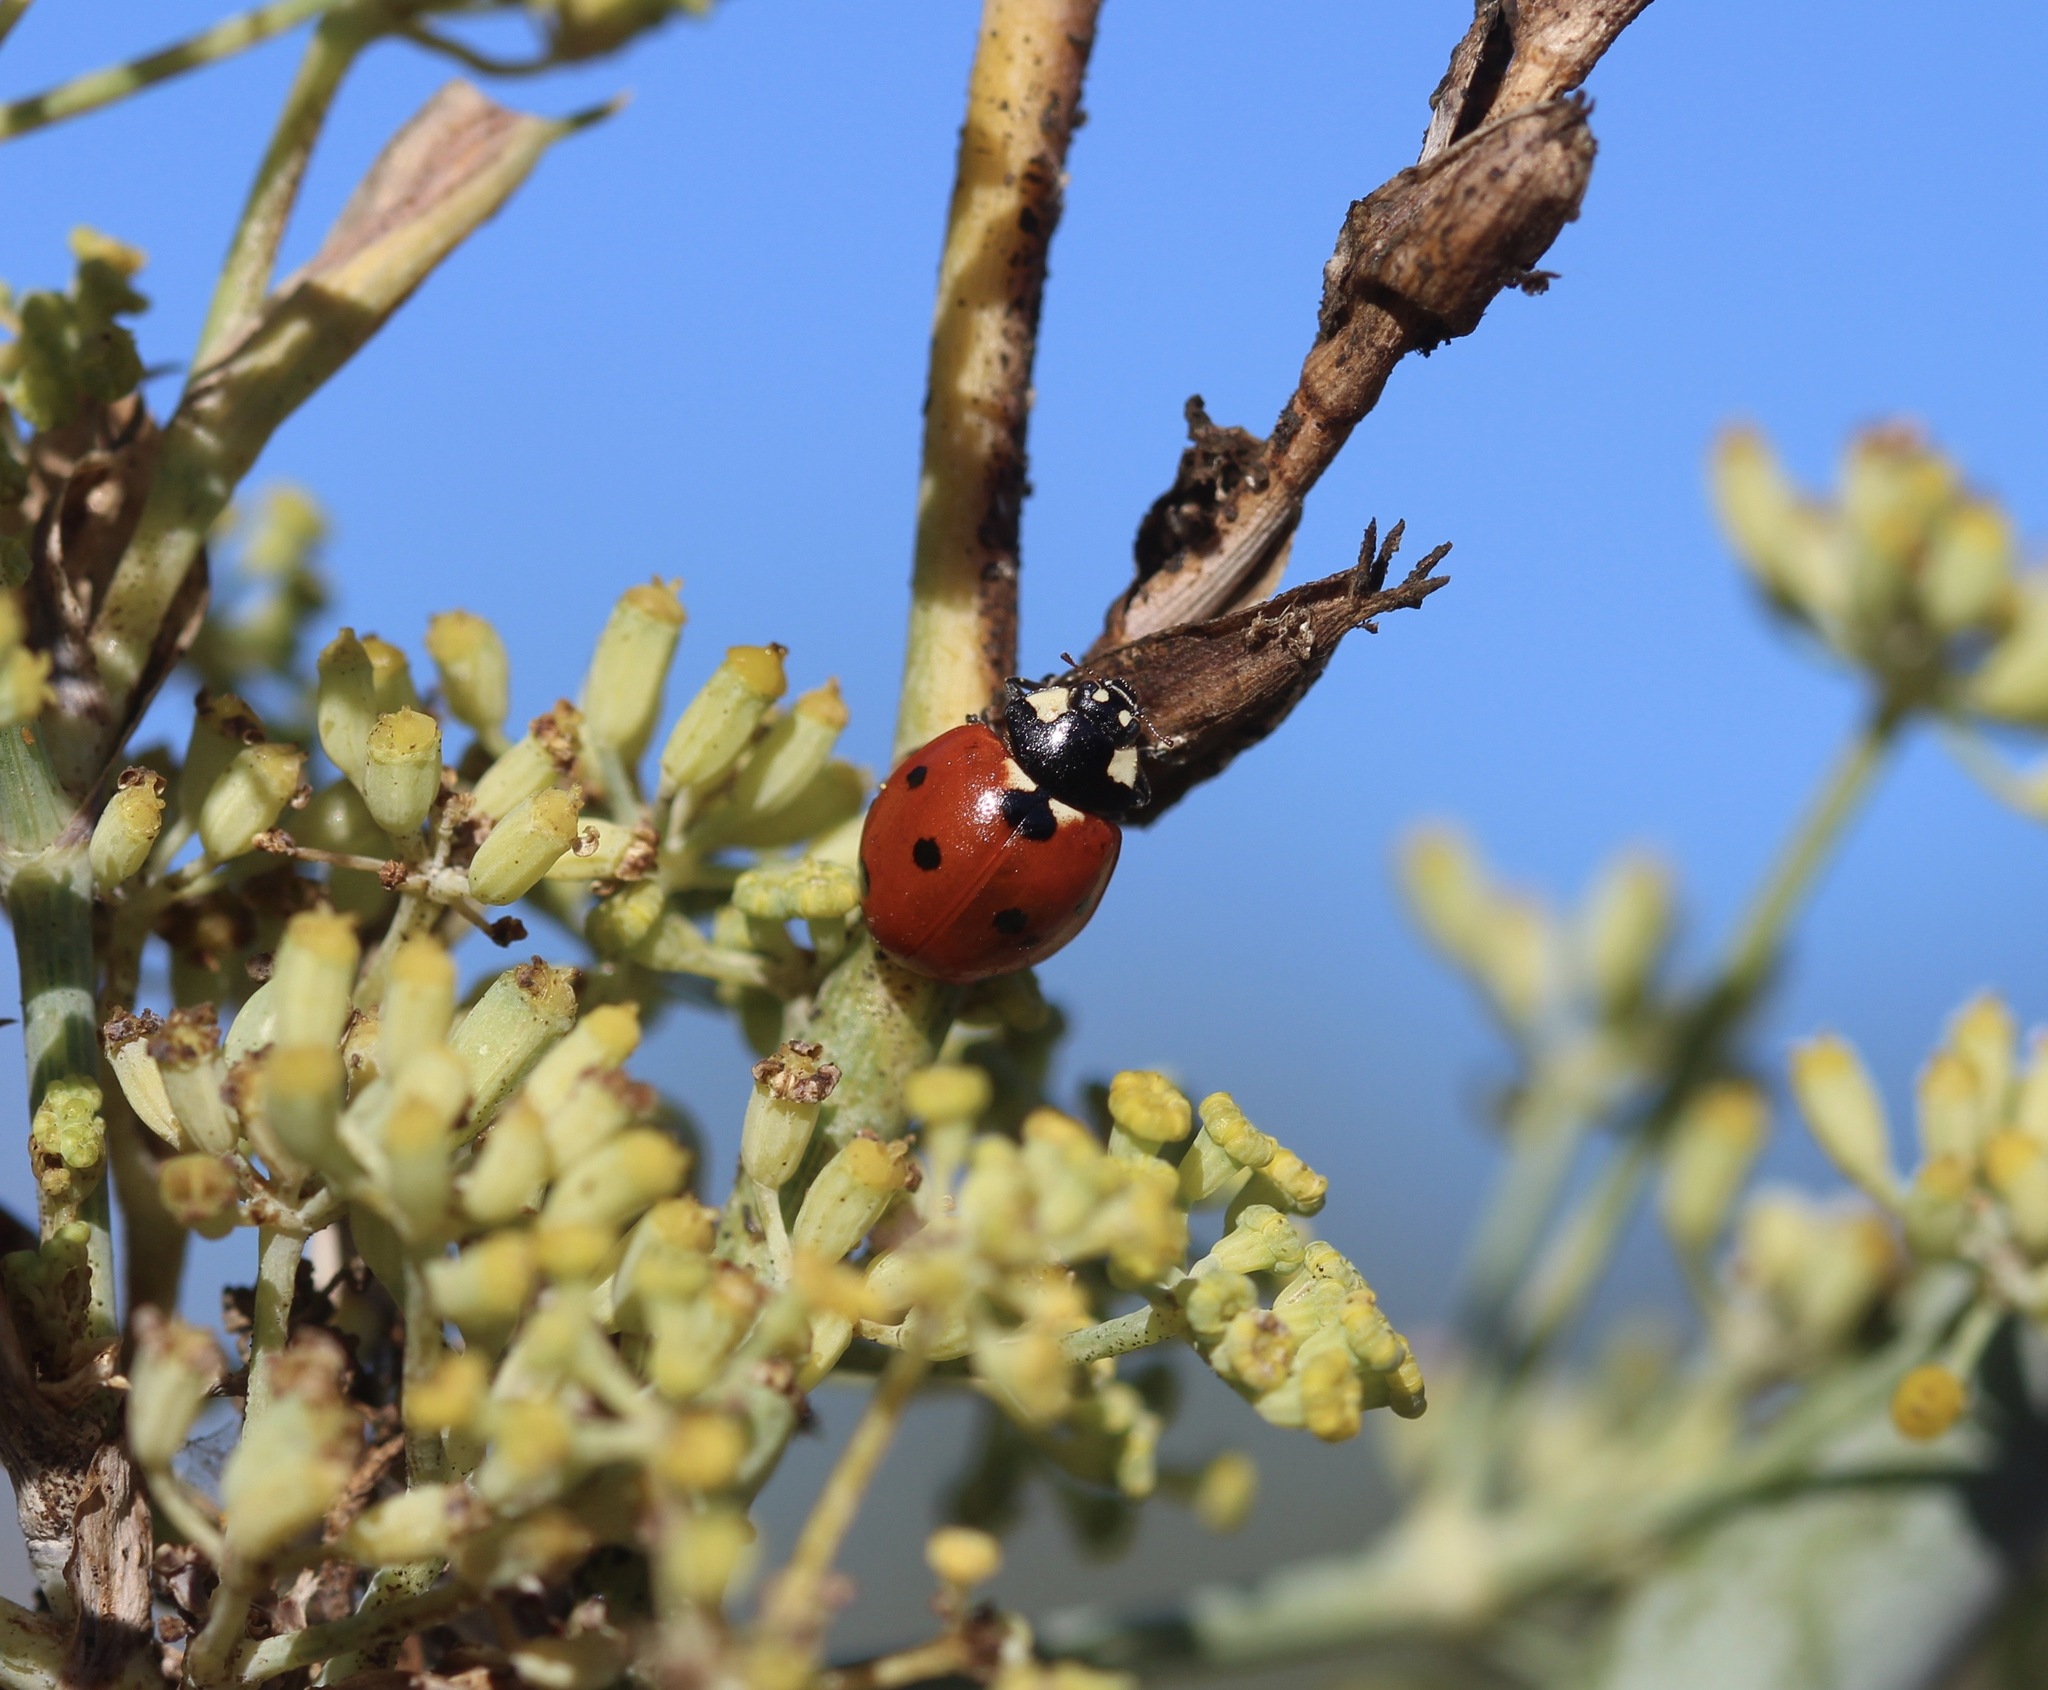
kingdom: Animalia
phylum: Arthropoda
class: Insecta
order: Coleoptera
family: Coccinellidae
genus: Coccinella
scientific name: Coccinella septempunctata
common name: Sevenspotted lady beetle
